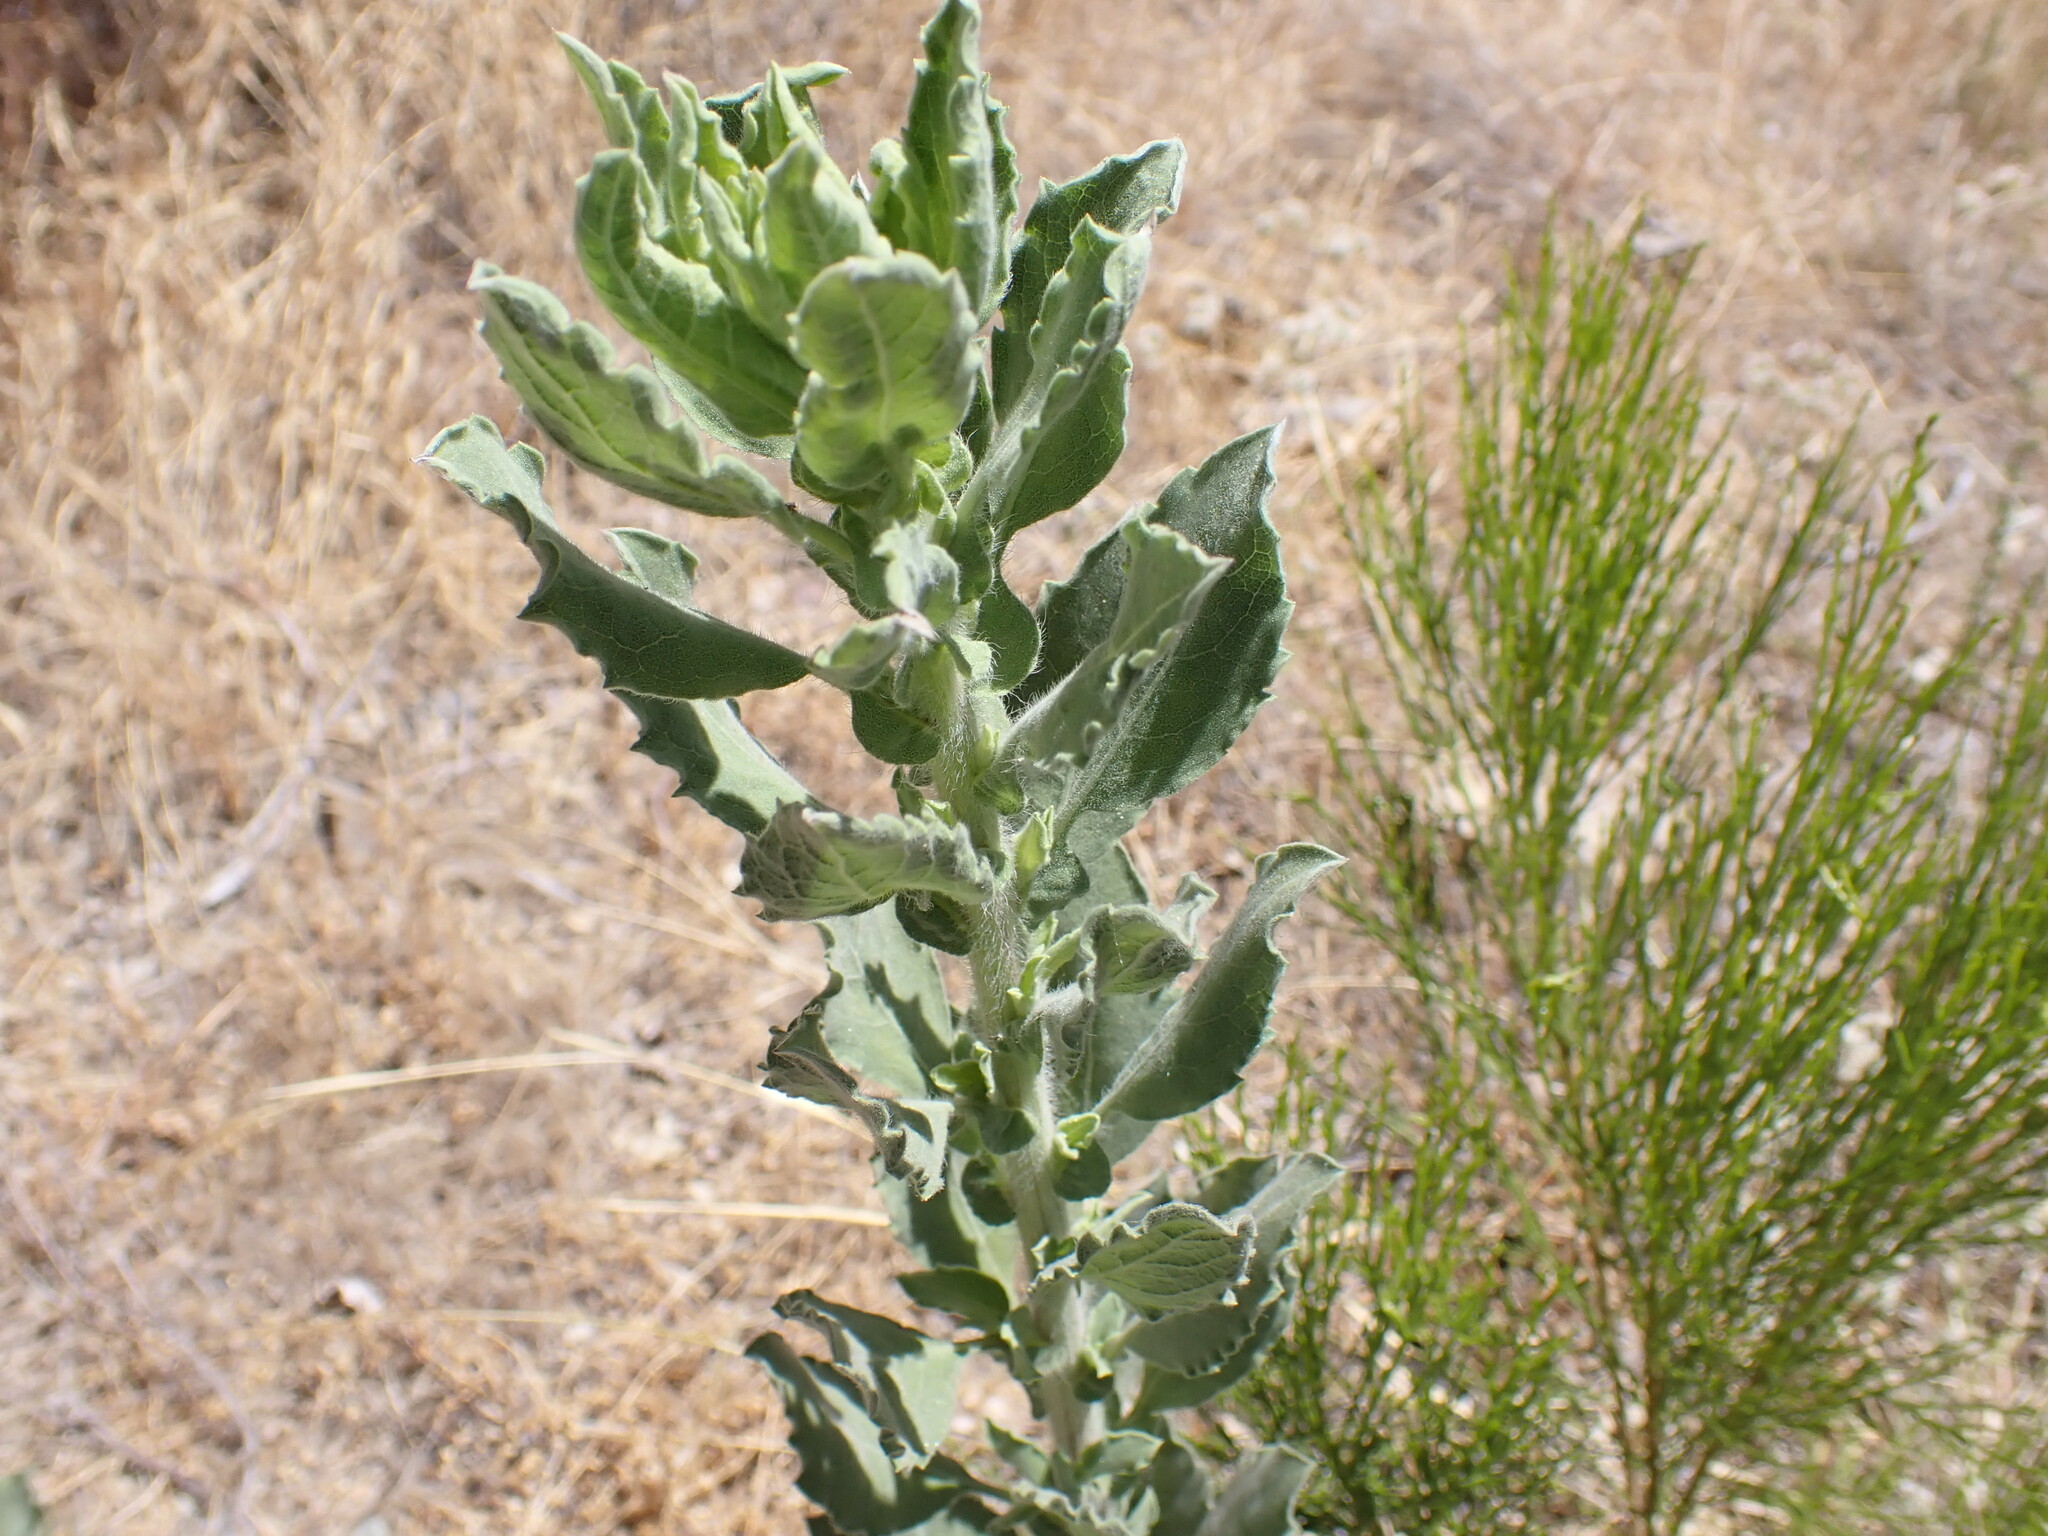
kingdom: Plantae
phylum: Tracheophyta
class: Magnoliopsida
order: Asterales
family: Asteraceae
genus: Heterotheca
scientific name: Heterotheca grandiflora
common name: Telegraphweed
